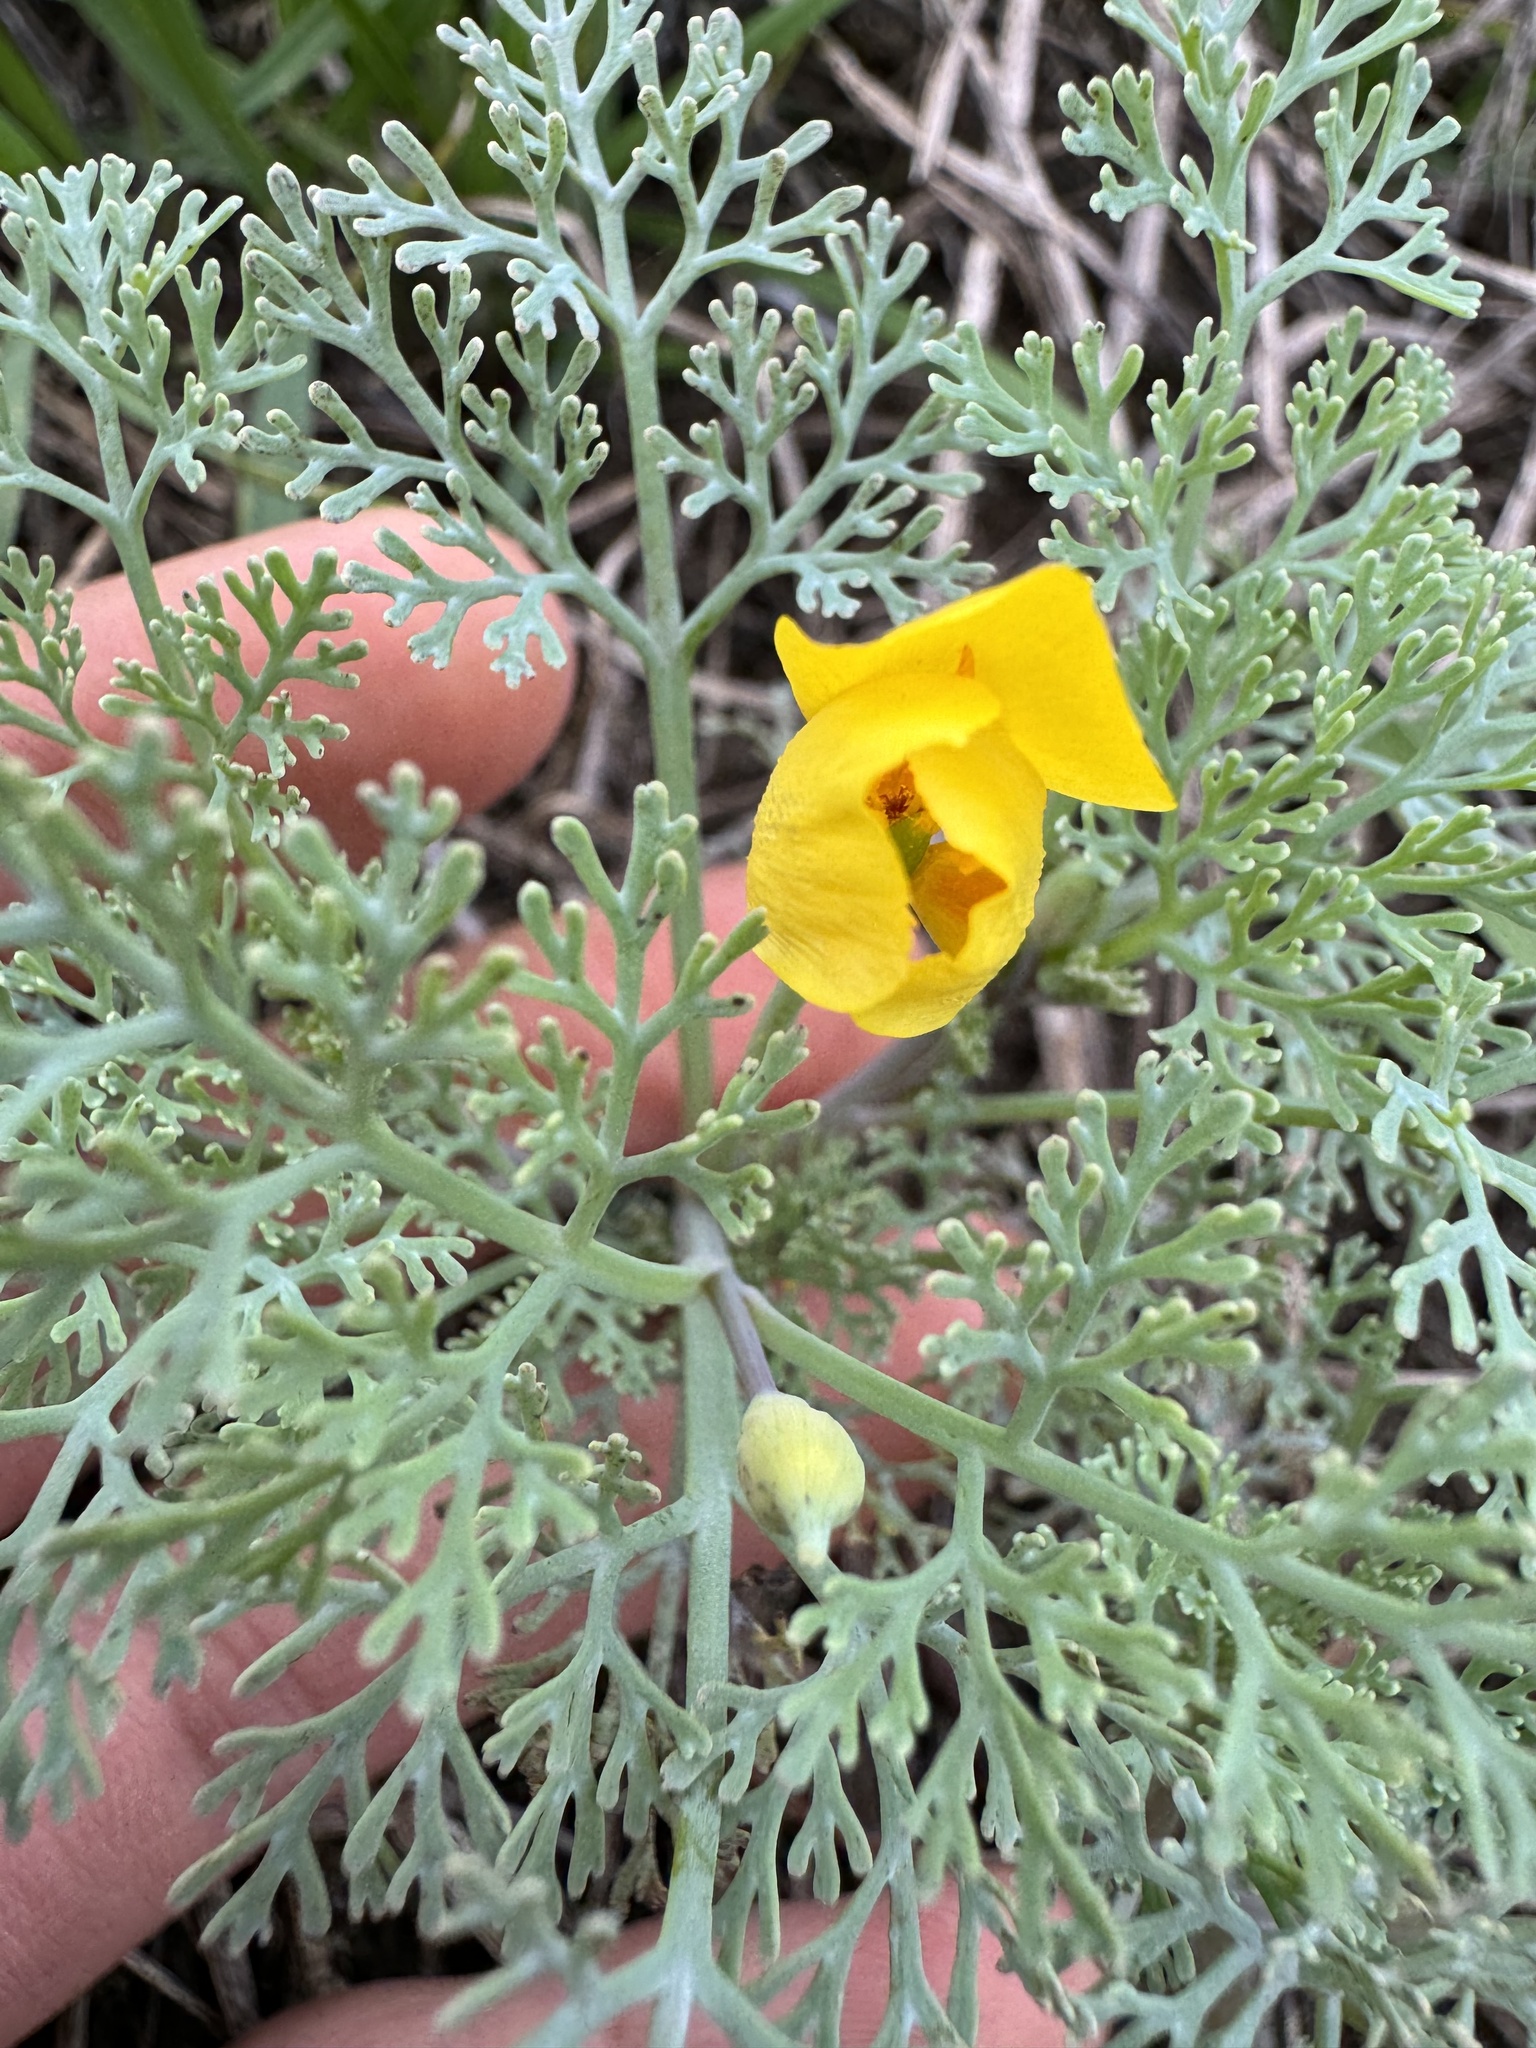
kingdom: Plantae
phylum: Tracheophyta
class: Magnoliopsida
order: Ranunculales
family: Papaveraceae
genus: Eschscholzia
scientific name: Eschscholzia ramosa
